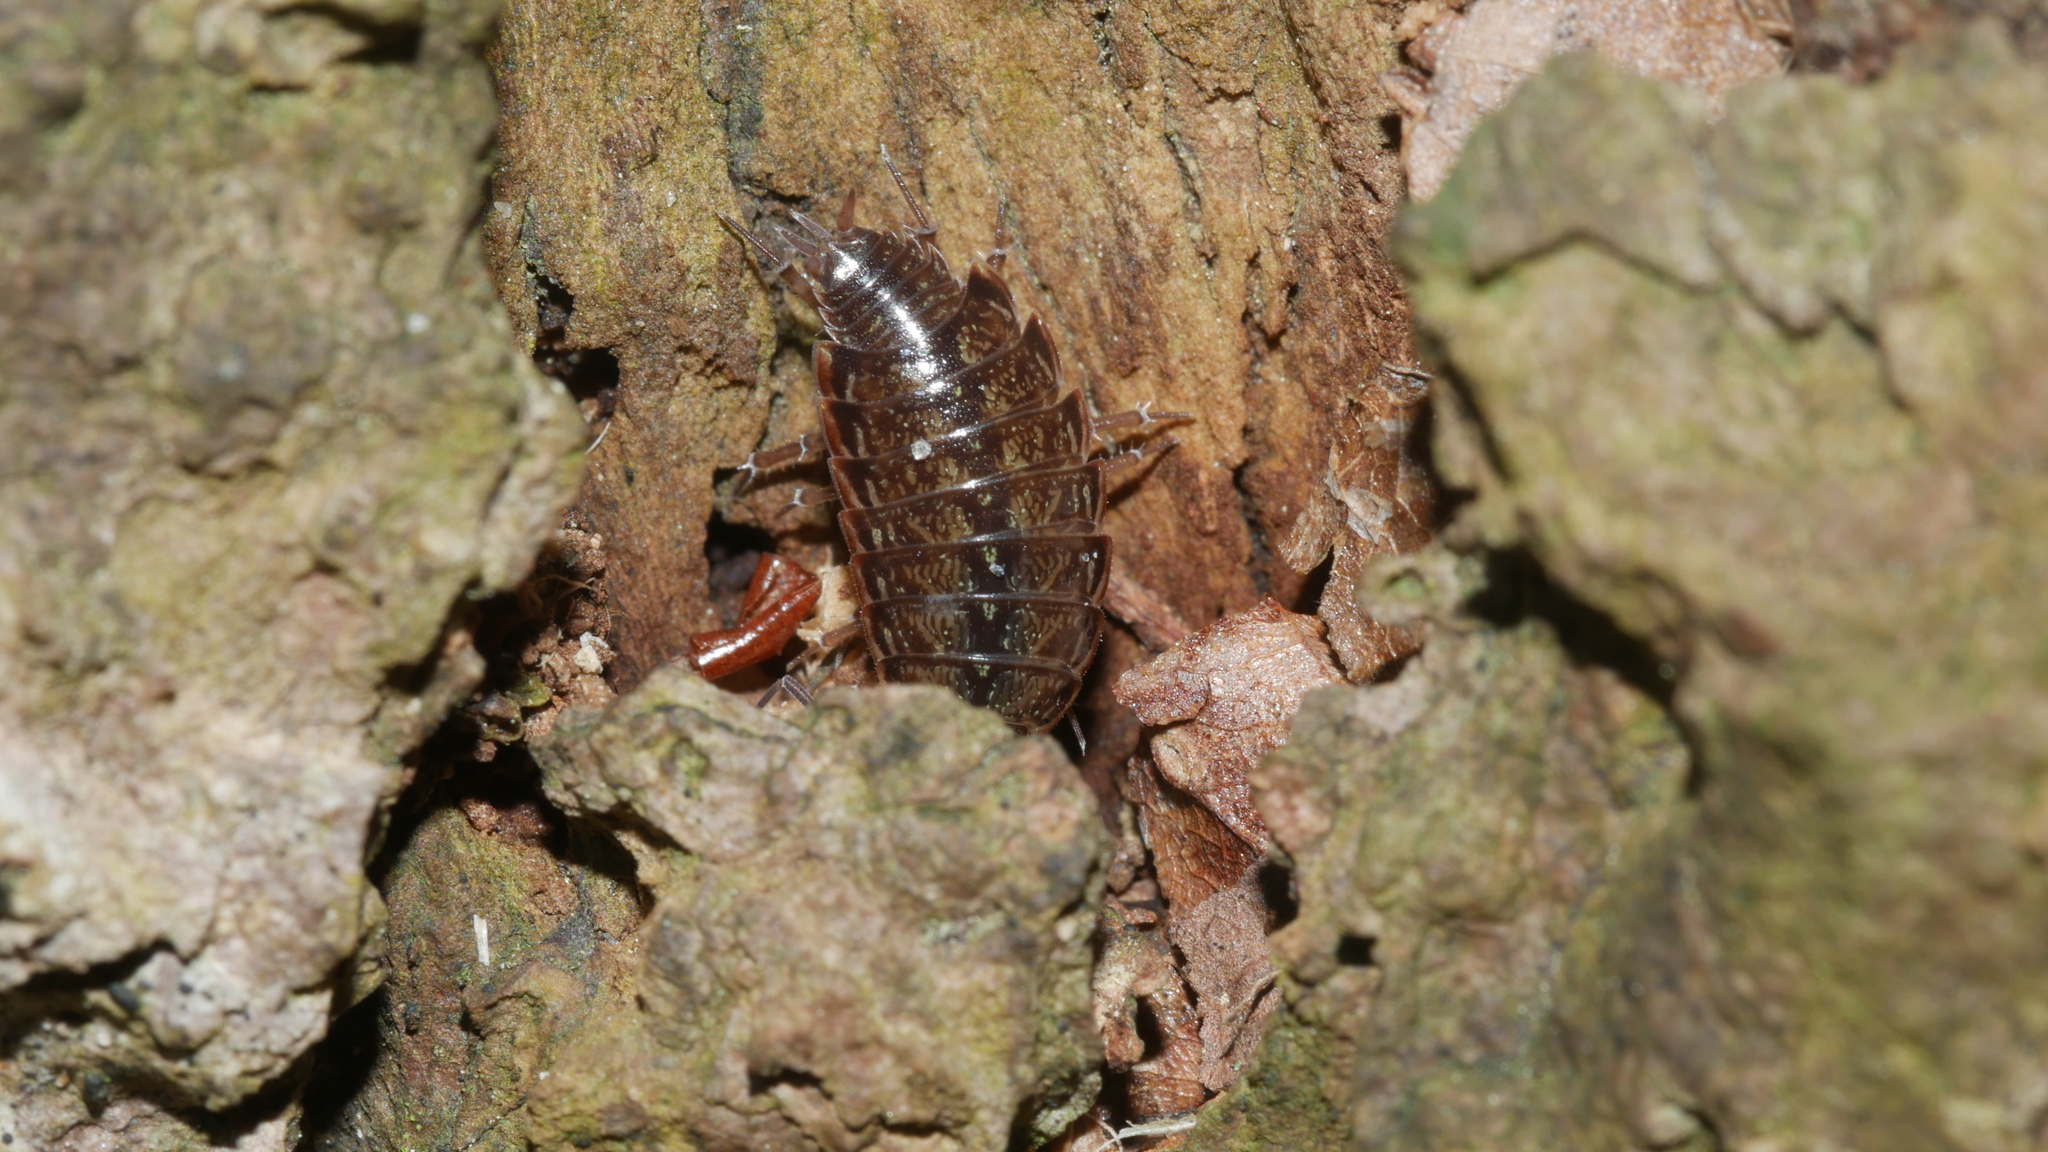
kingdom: Animalia
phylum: Arthropoda
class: Malacostraca
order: Isopoda
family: Philosciidae
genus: Philoscia
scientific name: Philoscia muscorum
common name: Common striped woodlouse
